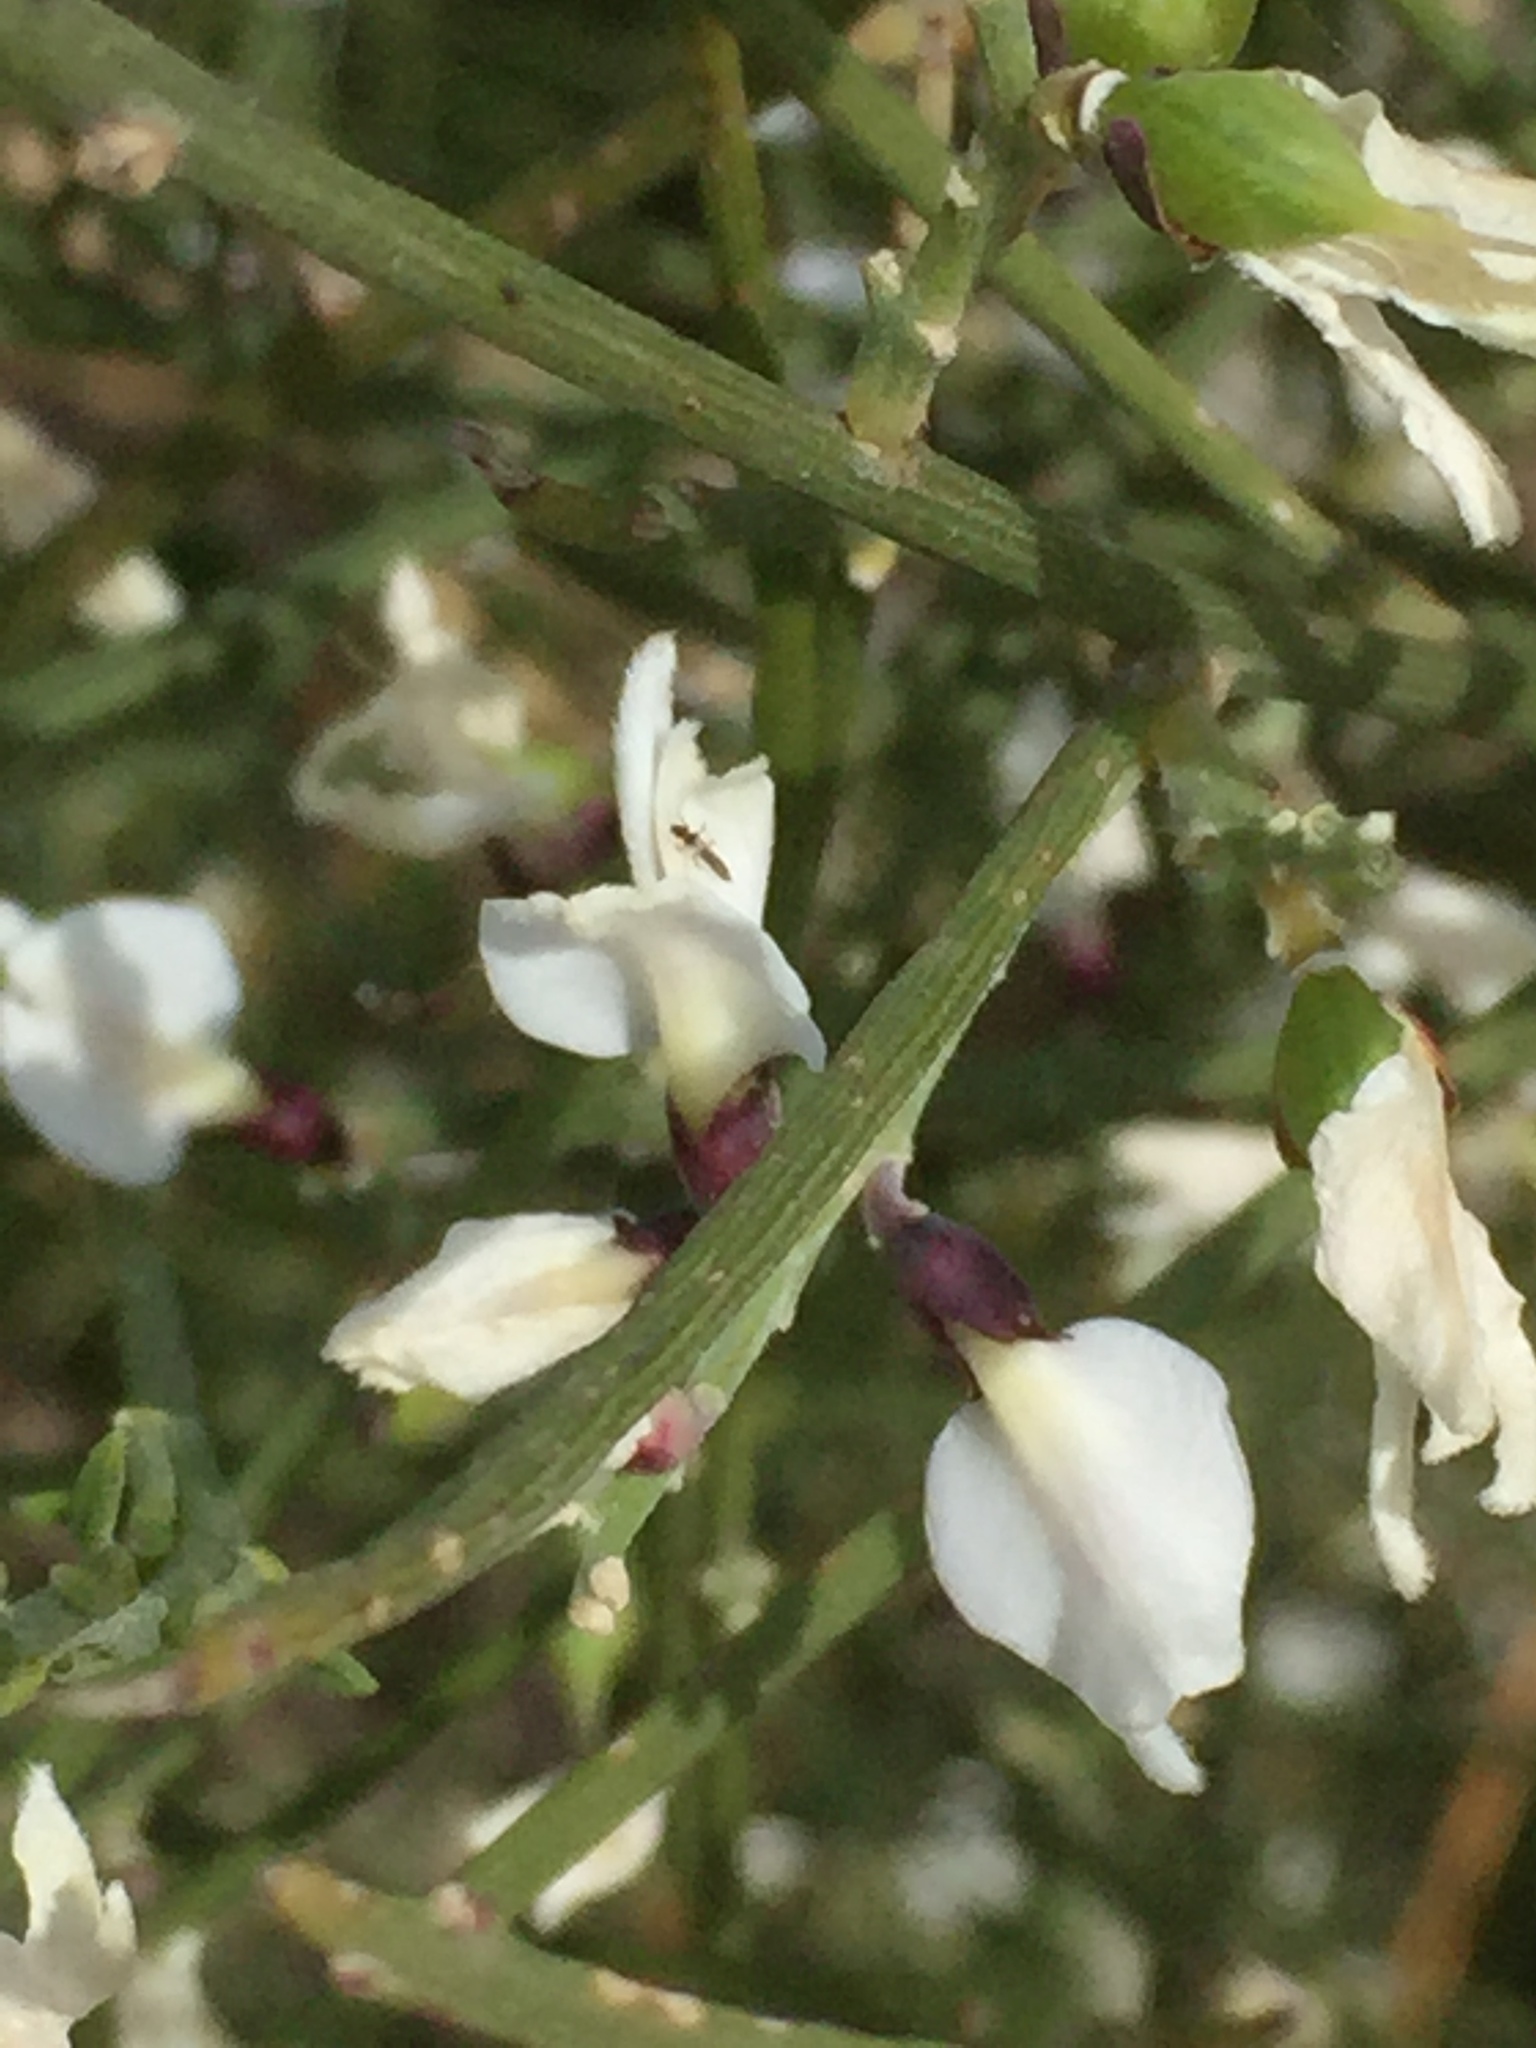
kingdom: Plantae
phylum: Tracheophyta
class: Magnoliopsida
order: Fabales
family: Fabaceae
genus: Retama
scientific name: Retama monosperma
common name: Bridal broom
